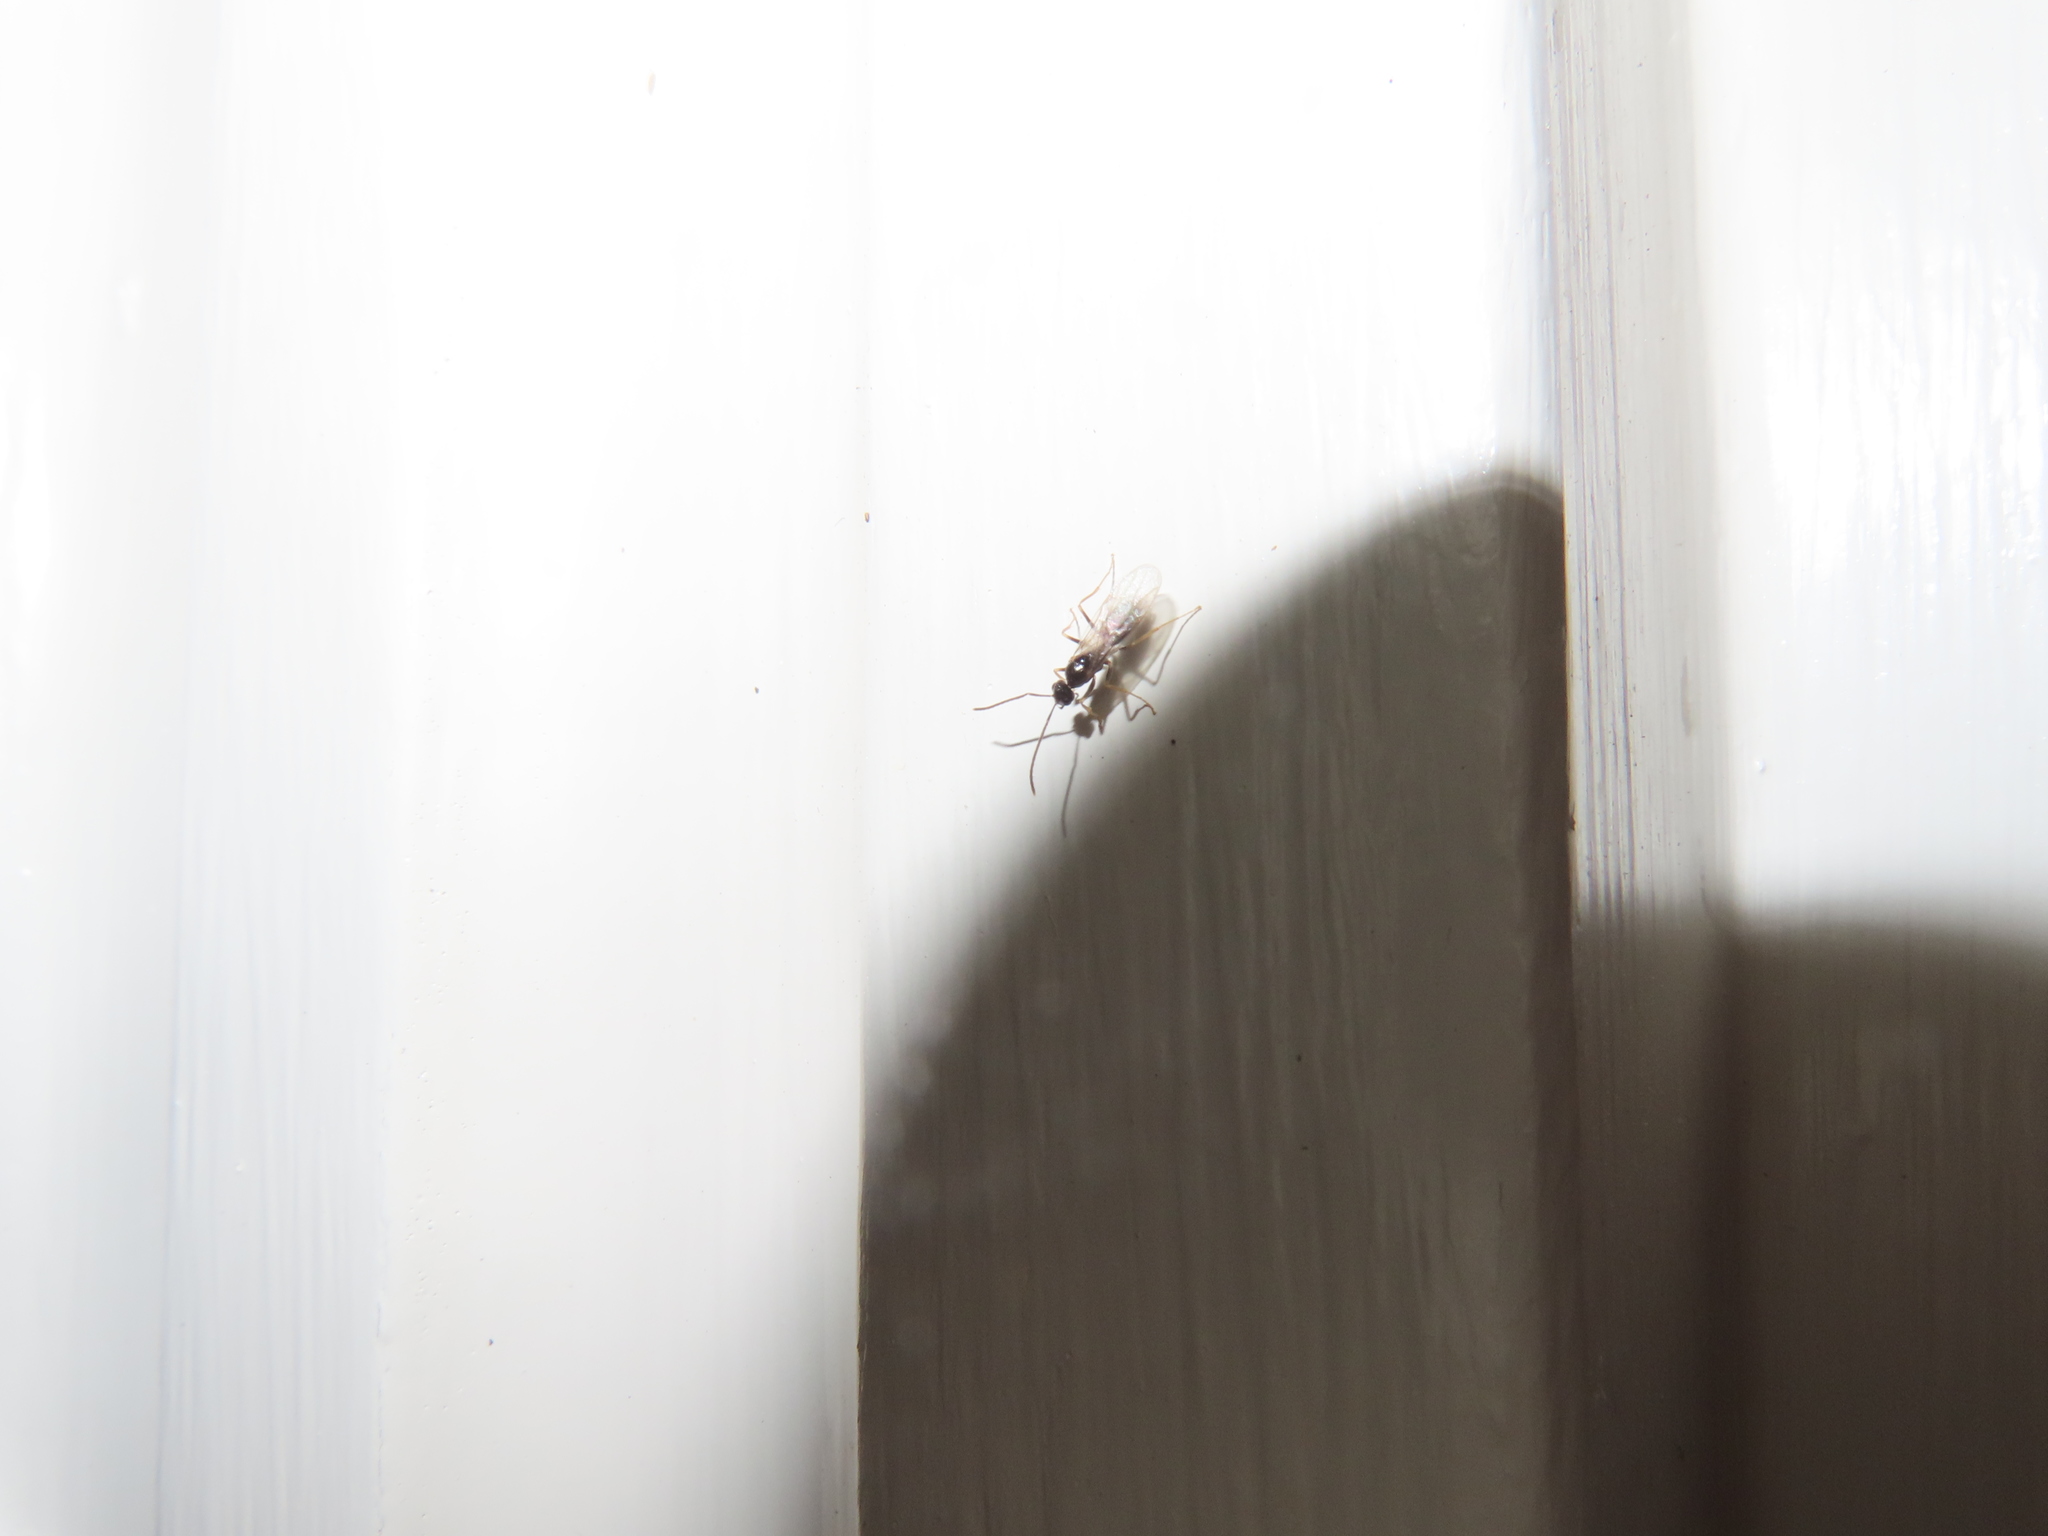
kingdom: Animalia
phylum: Arthropoda
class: Insecta
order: Hymenoptera
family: Formicidae
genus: Tapinoma
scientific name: Tapinoma sessile
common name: Odorous house ant
